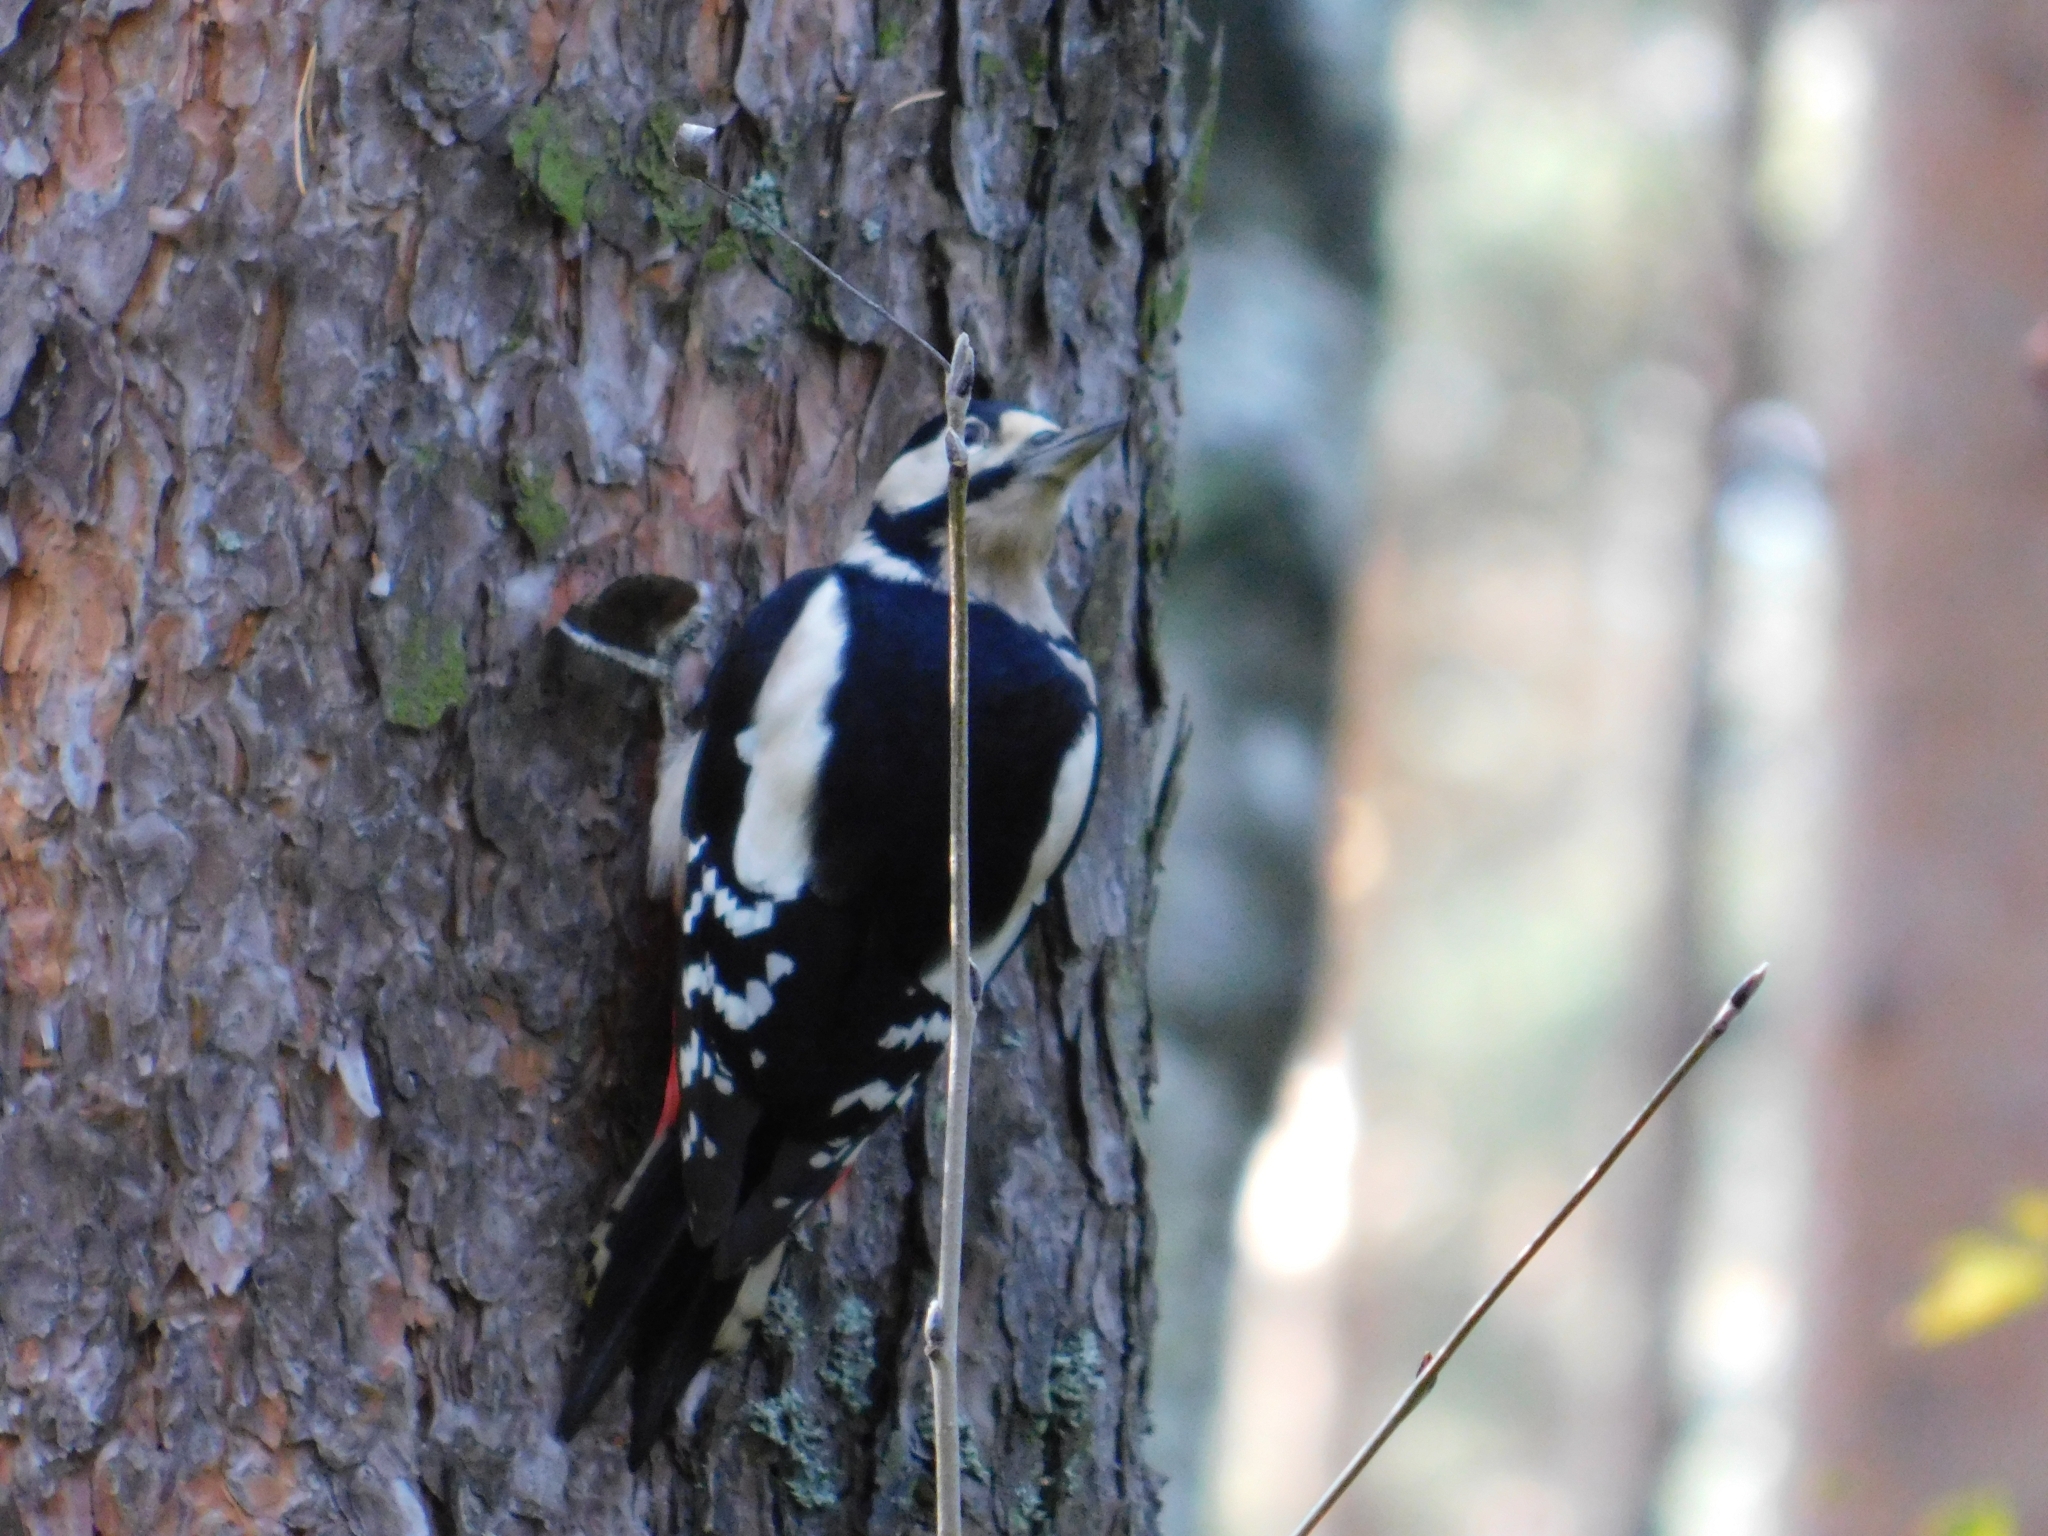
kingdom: Animalia
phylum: Chordata
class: Aves
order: Piciformes
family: Picidae
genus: Dendrocopos
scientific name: Dendrocopos major
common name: Great spotted woodpecker
